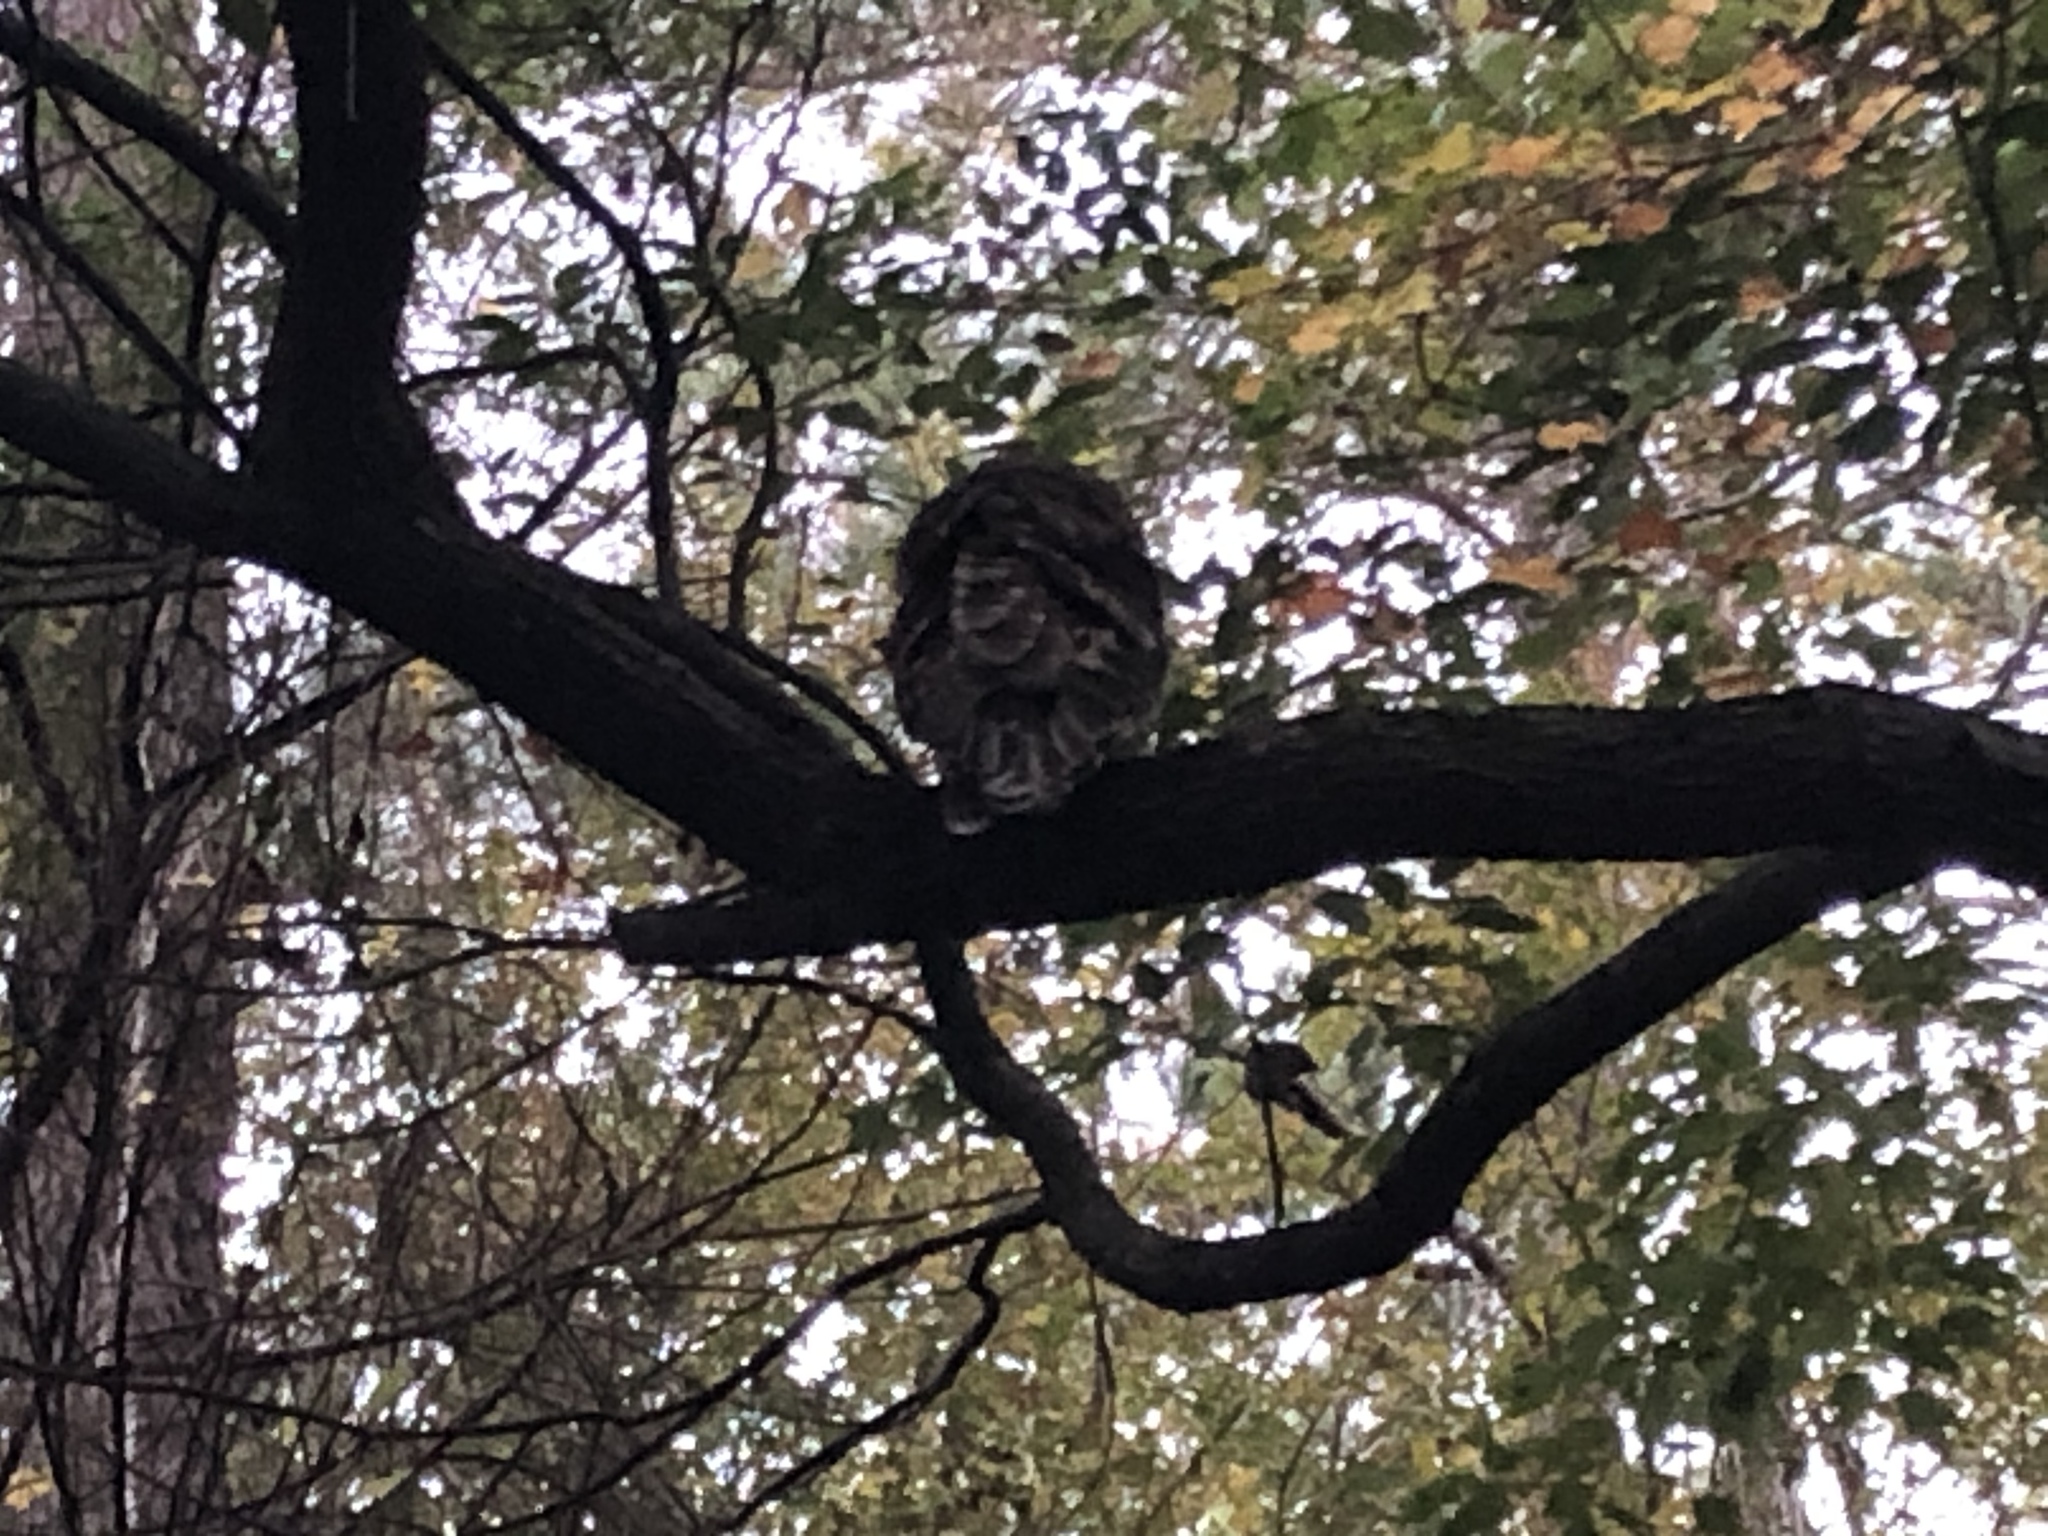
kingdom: Animalia
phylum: Chordata
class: Aves
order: Strigiformes
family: Strigidae
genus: Strix
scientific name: Strix varia
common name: Barred owl
